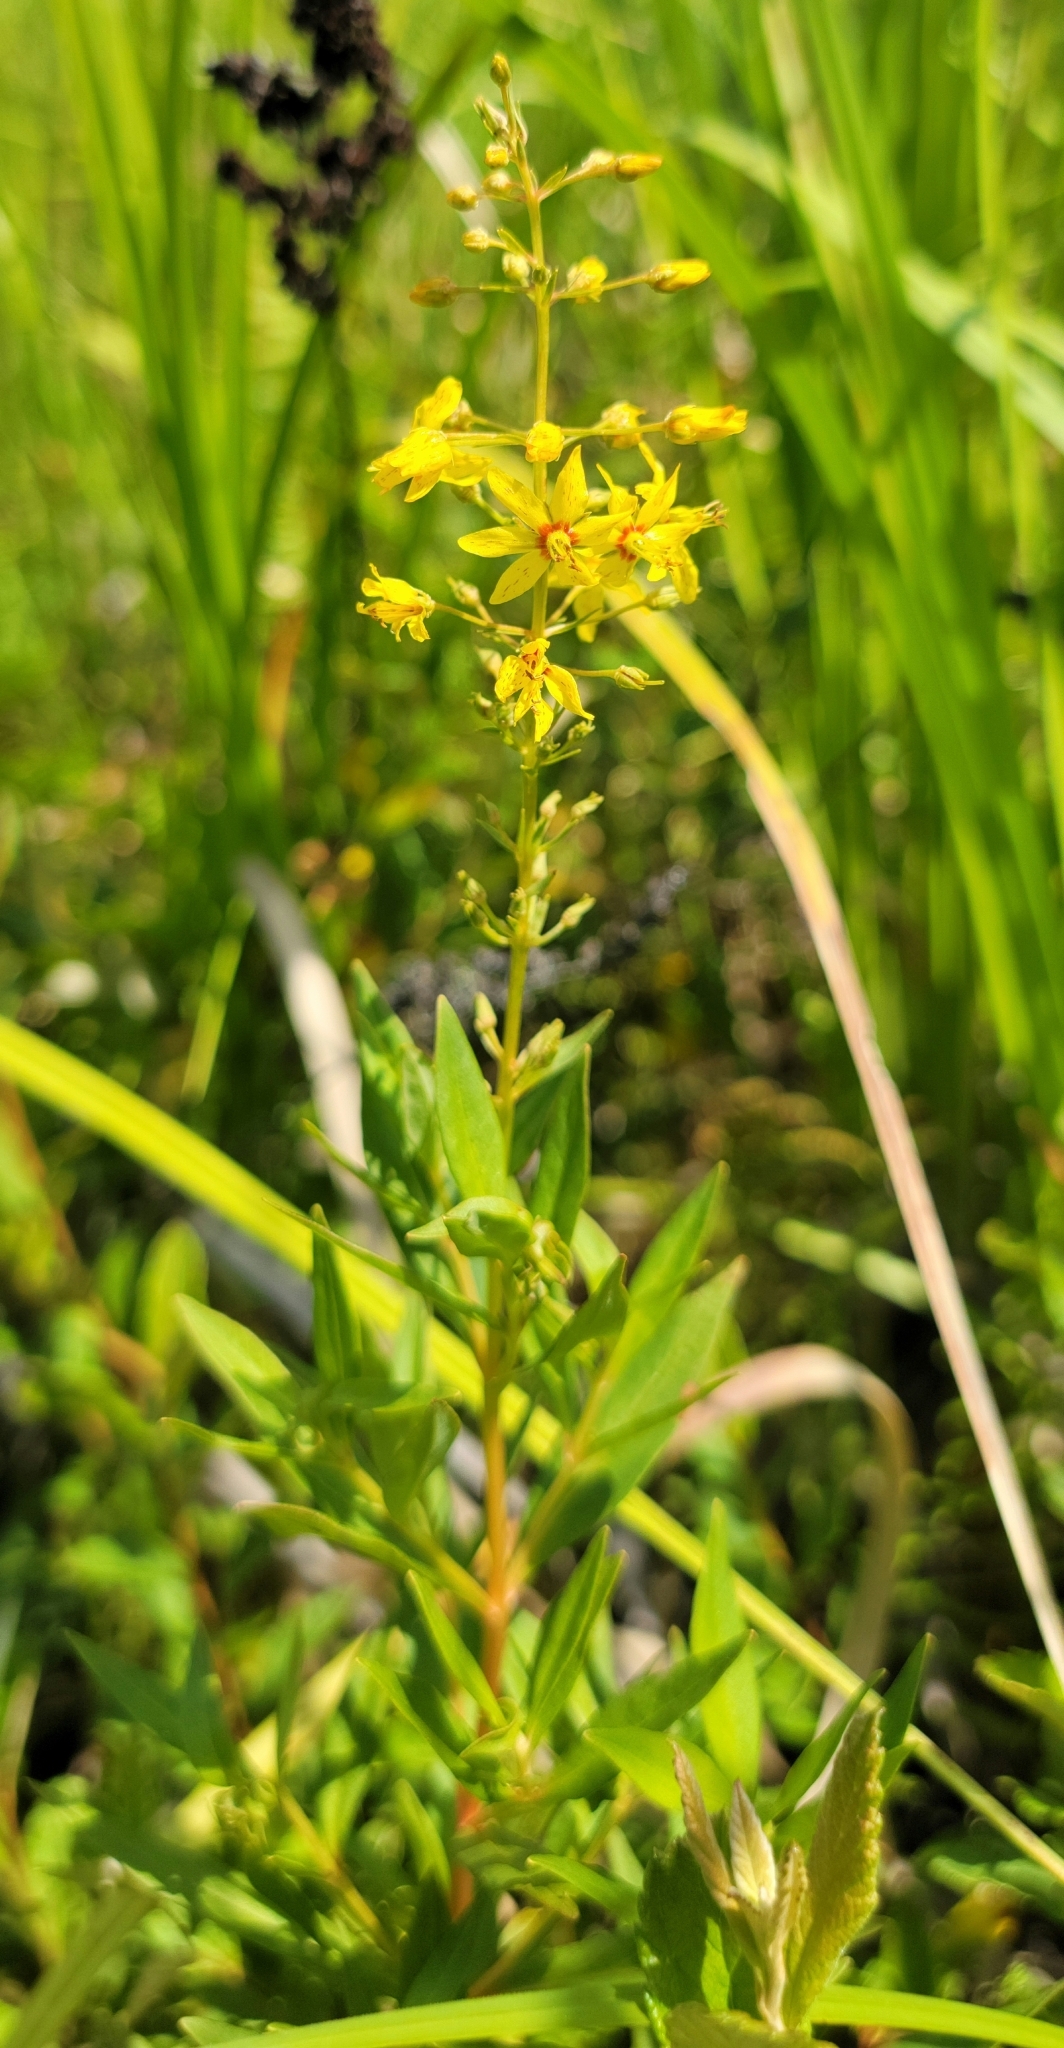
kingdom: Plantae
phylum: Tracheophyta
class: Magnoliopsida
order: Ericales
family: Primulaceae
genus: Lysimachia
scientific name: Lysimachia terrestris
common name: Lake loosestrife
